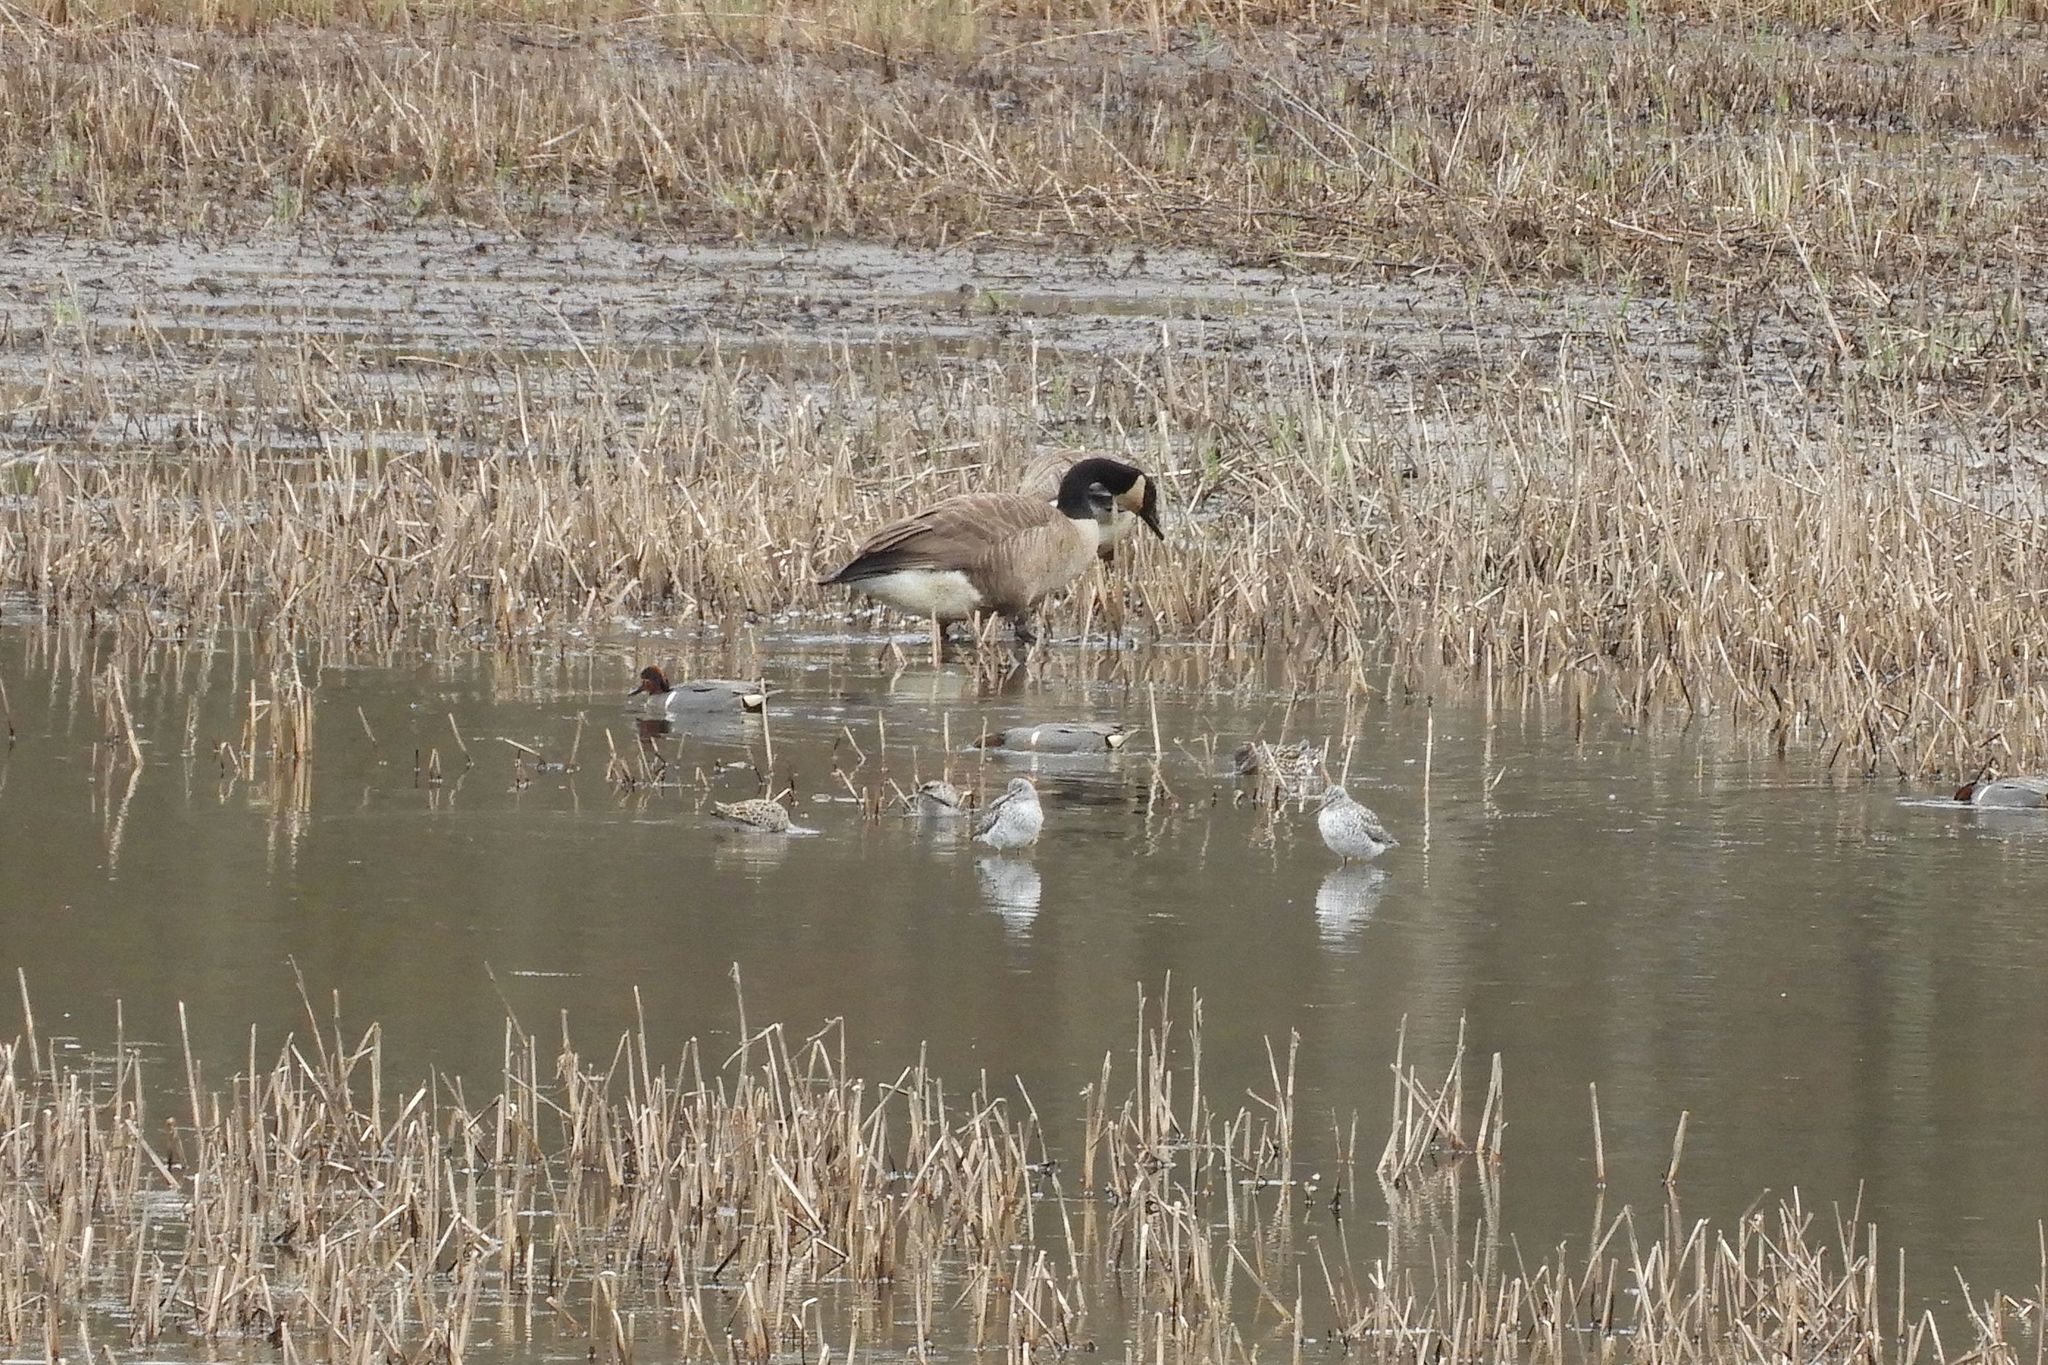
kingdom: Animalia
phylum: Chordata
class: Aves
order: Charadriiformes
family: Scolopacidae
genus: Tringa
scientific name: Tringa melanoleuca
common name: Greater yellowlegs
